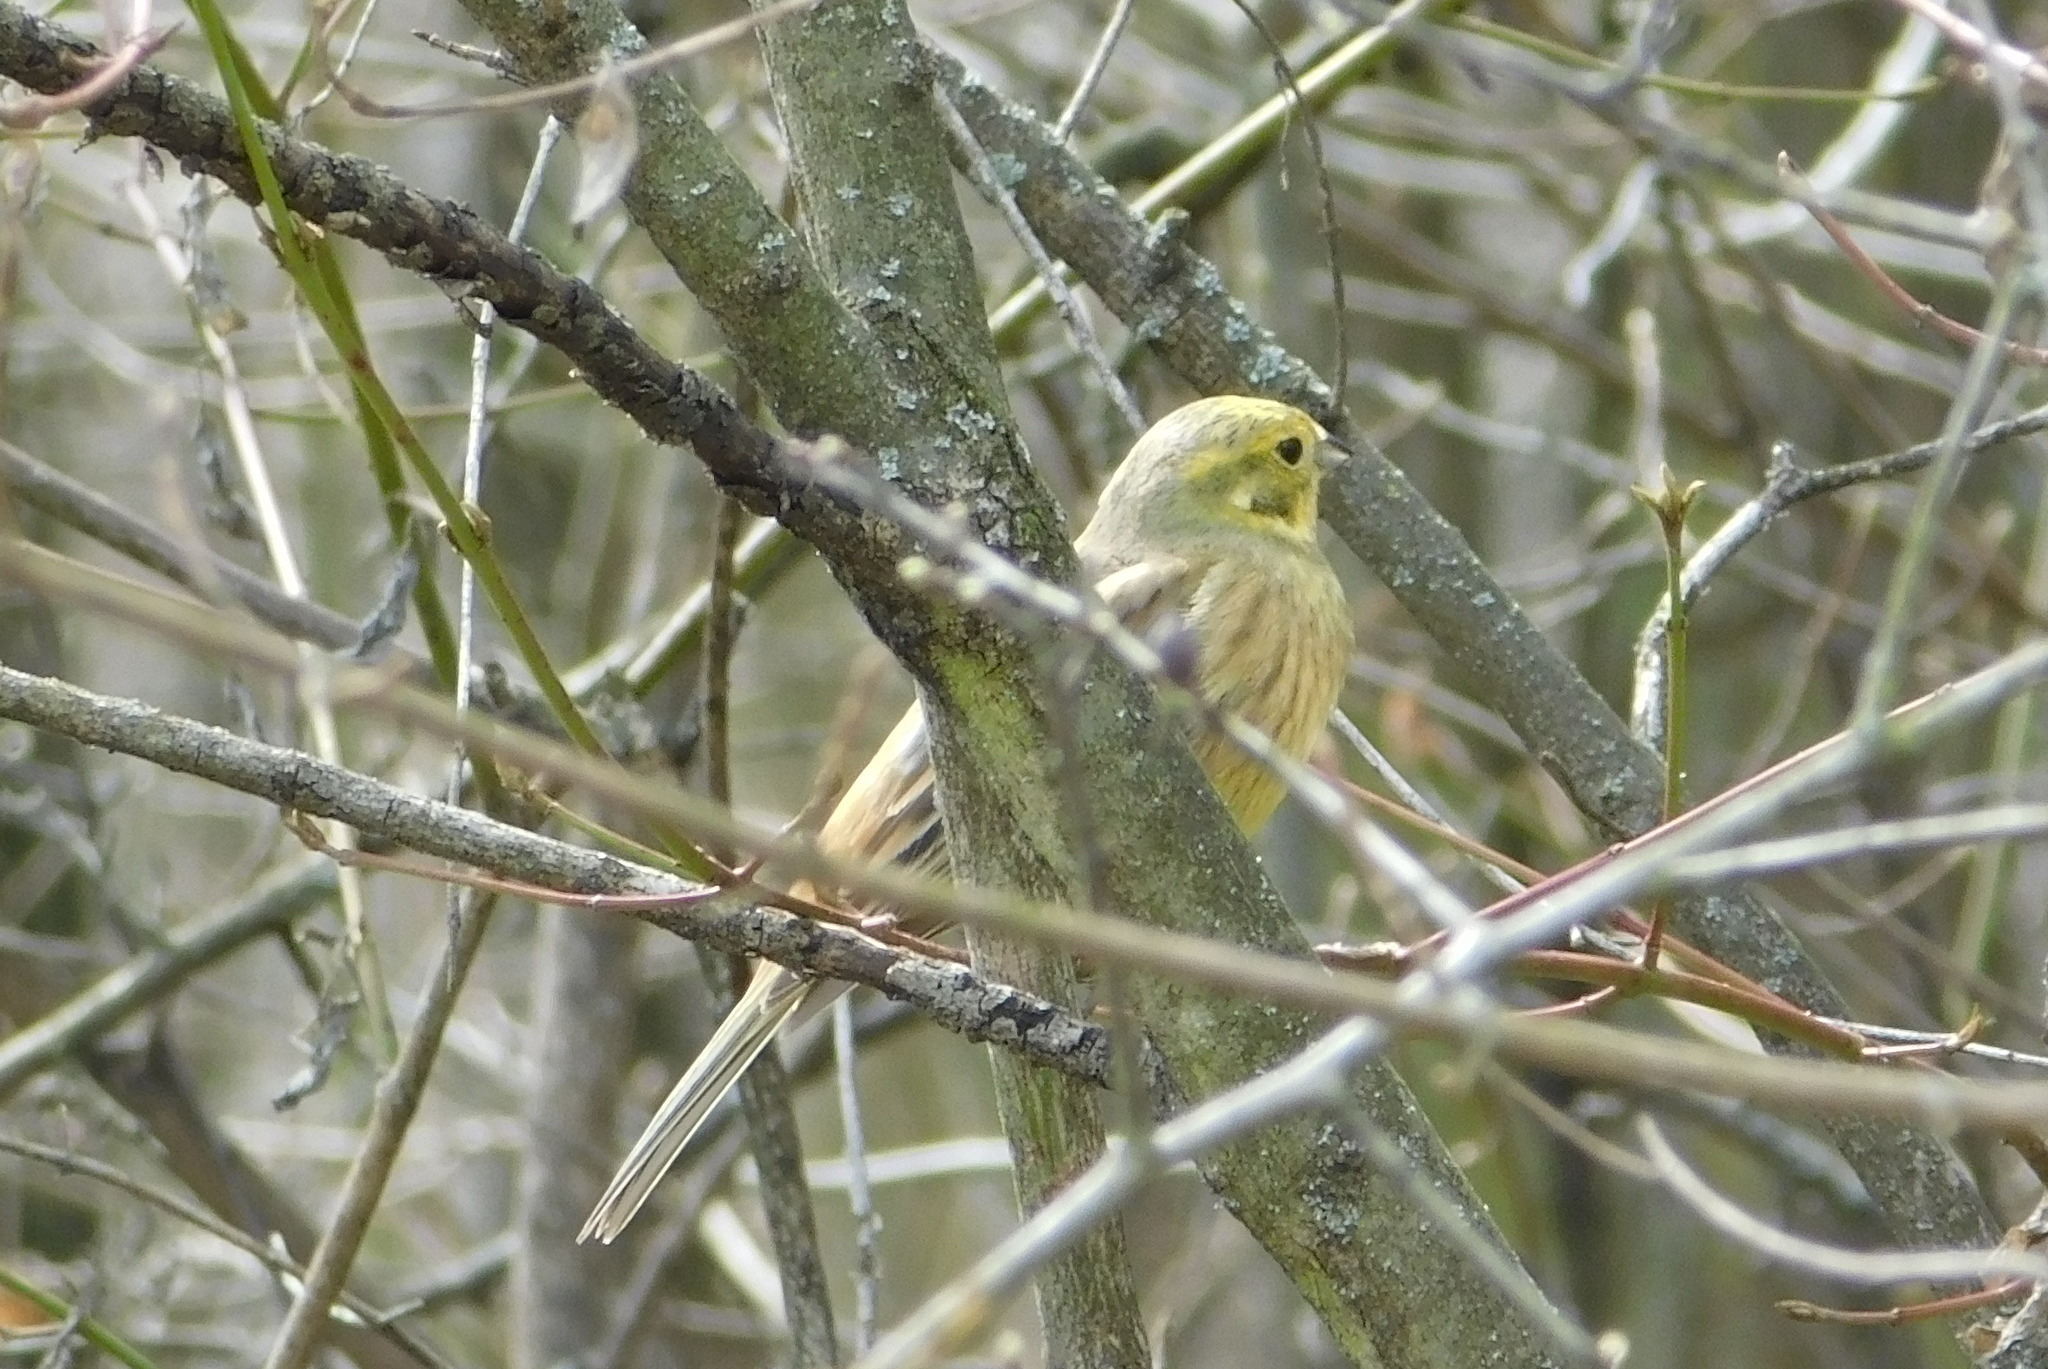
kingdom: Animalia
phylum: Chordata
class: Aves
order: Passeriformes
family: Emberizidae
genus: Emberiza
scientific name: Emberiza citrinella
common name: Yellowhammer
